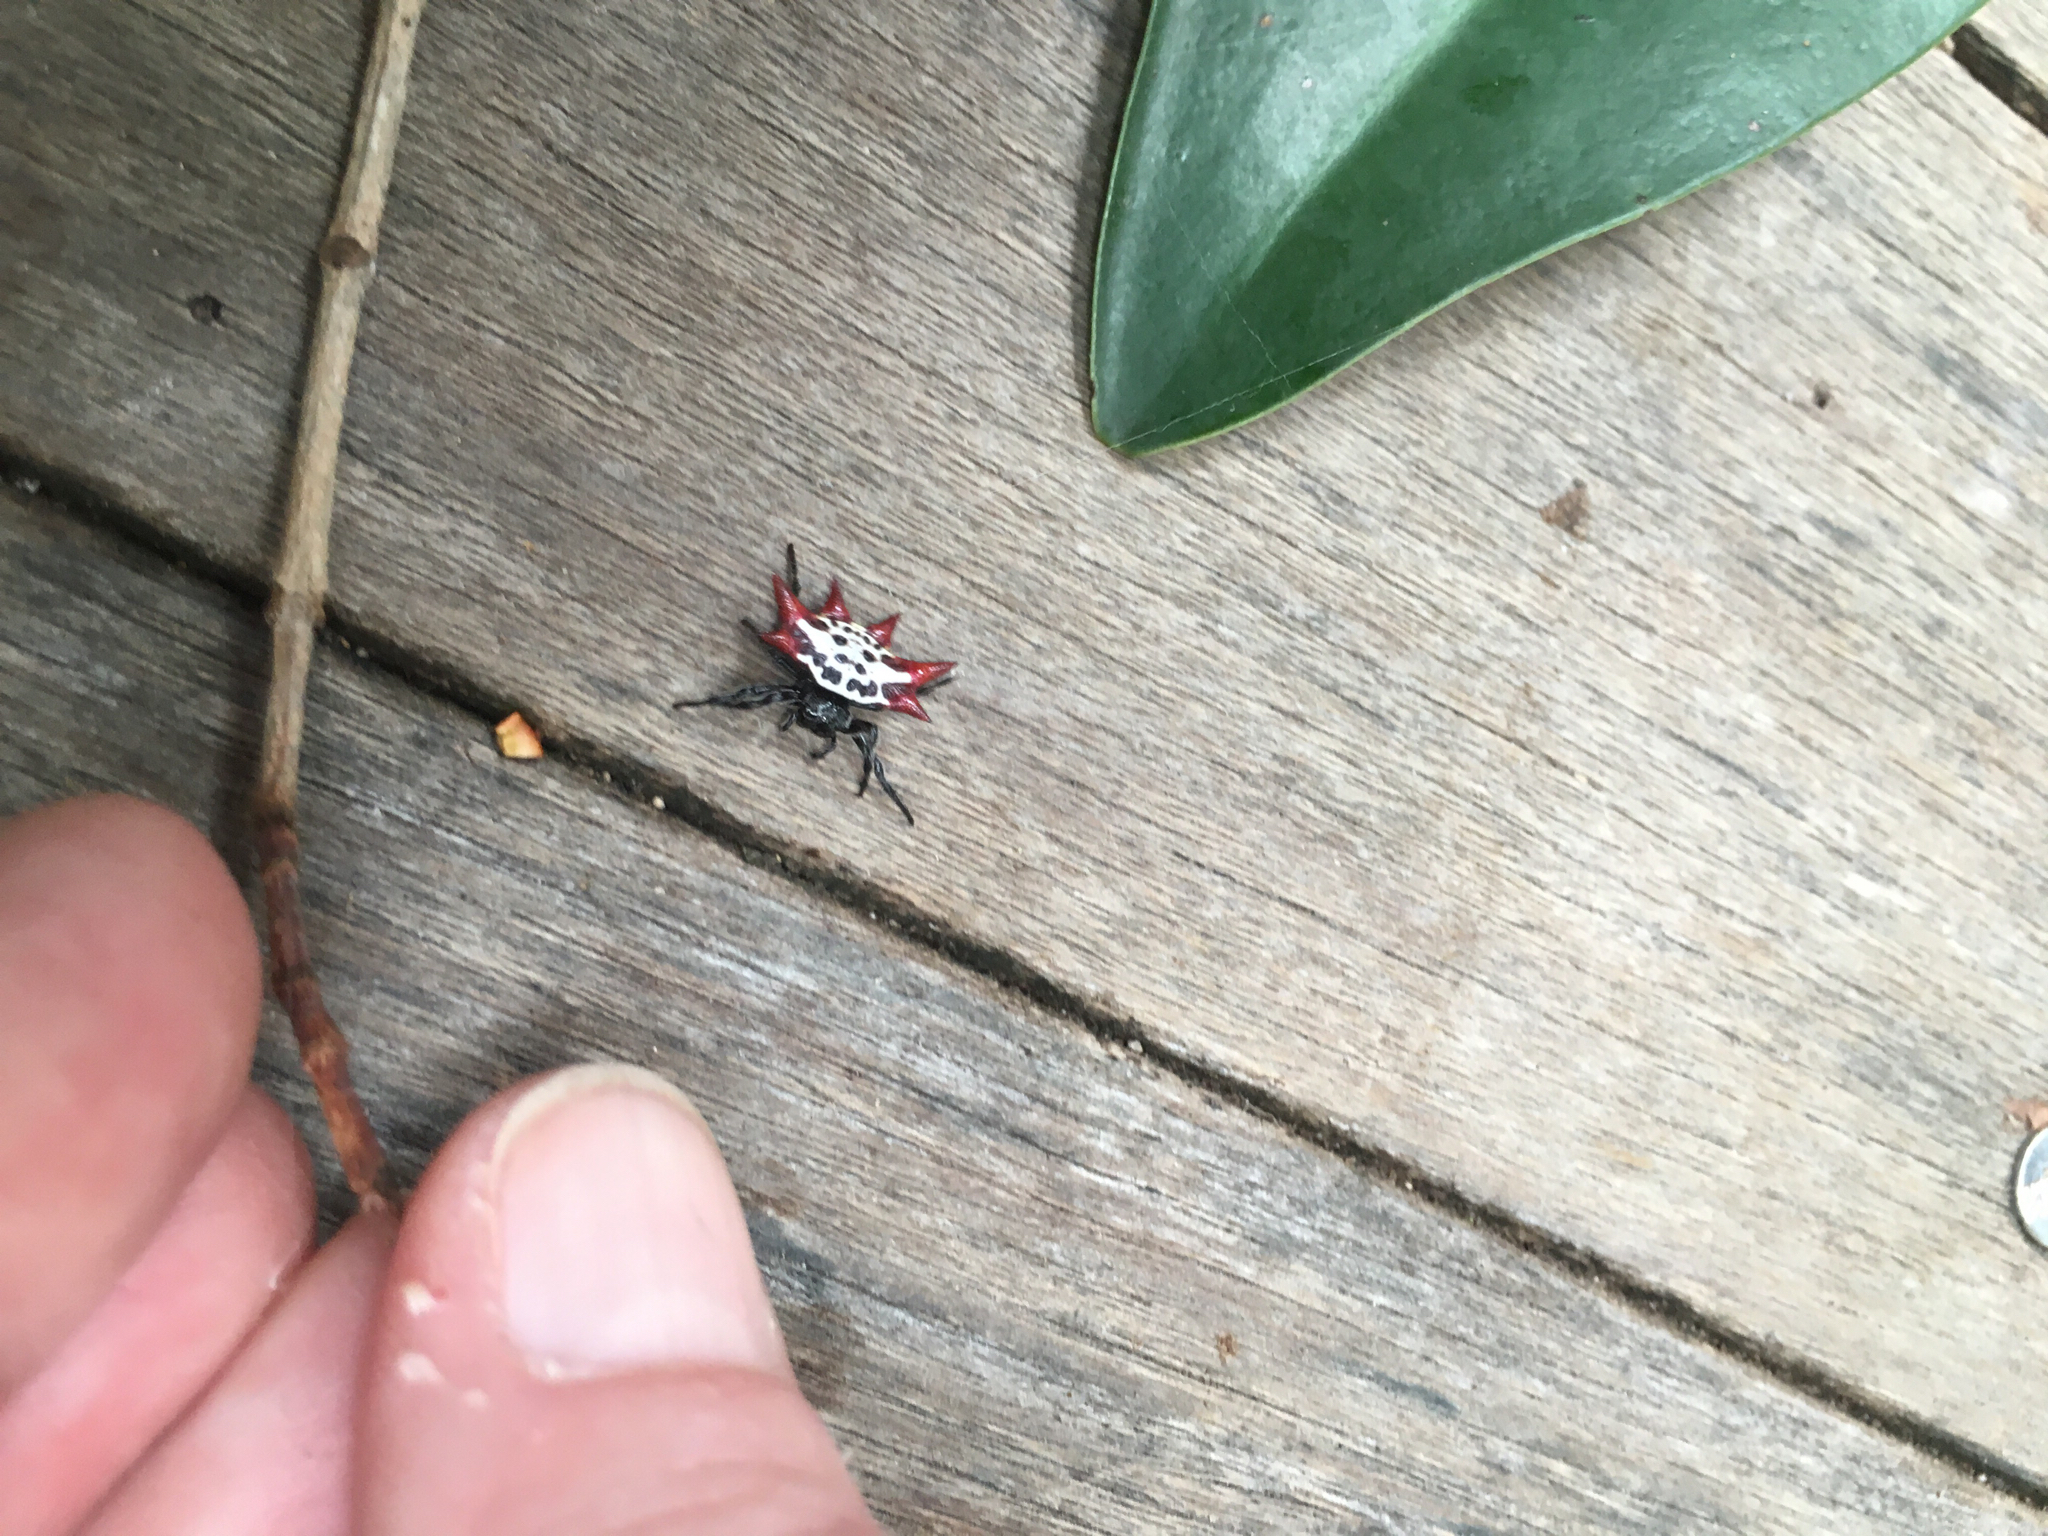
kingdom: Animalia
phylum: Arthropoda
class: Arachnida
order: Araneae
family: Araneidae
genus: Gasteracantha
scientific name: Gasteracantha cancriformis
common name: Orb weavers
